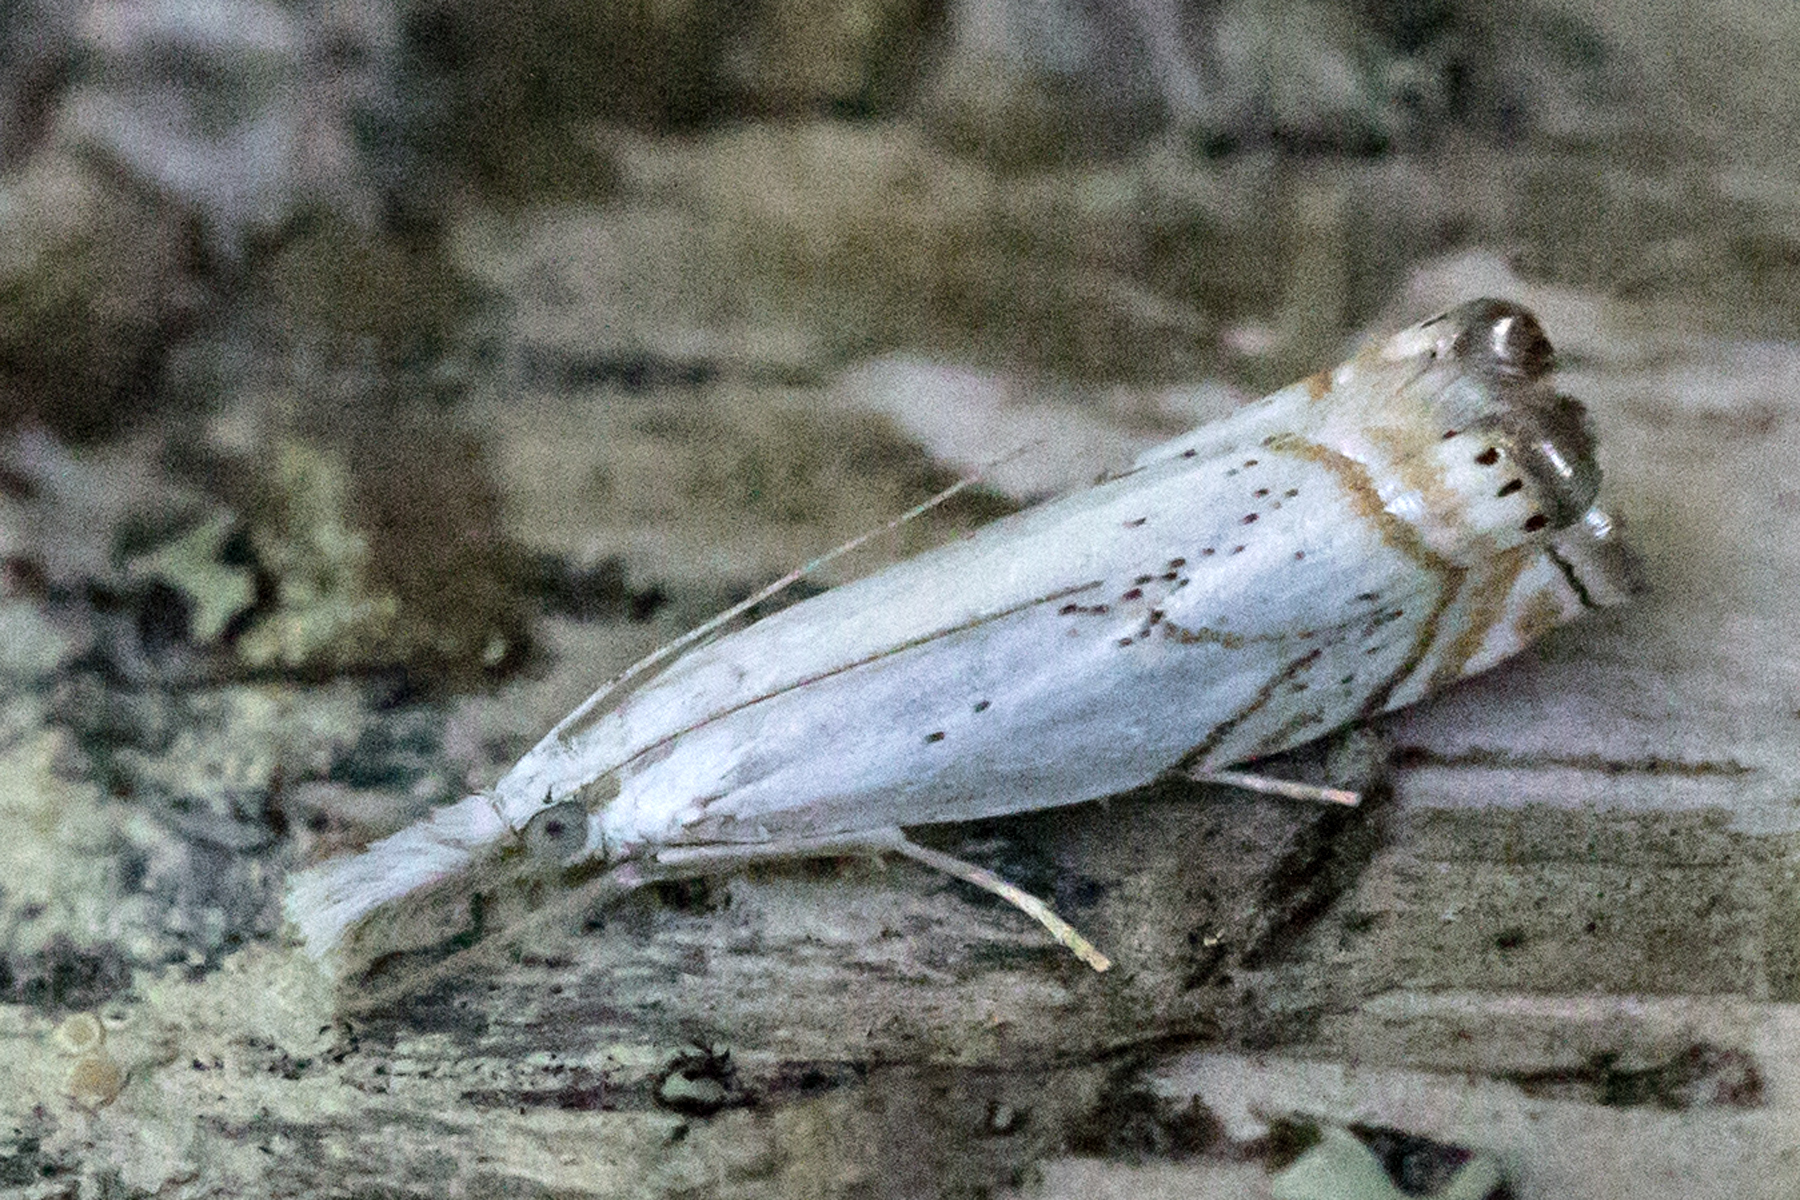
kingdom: Animalia
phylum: Arthropoda
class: Insecta
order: Lepidoptera
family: Crambidae
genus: Crambus
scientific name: Crambus albellus
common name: Small white grass-veneer
